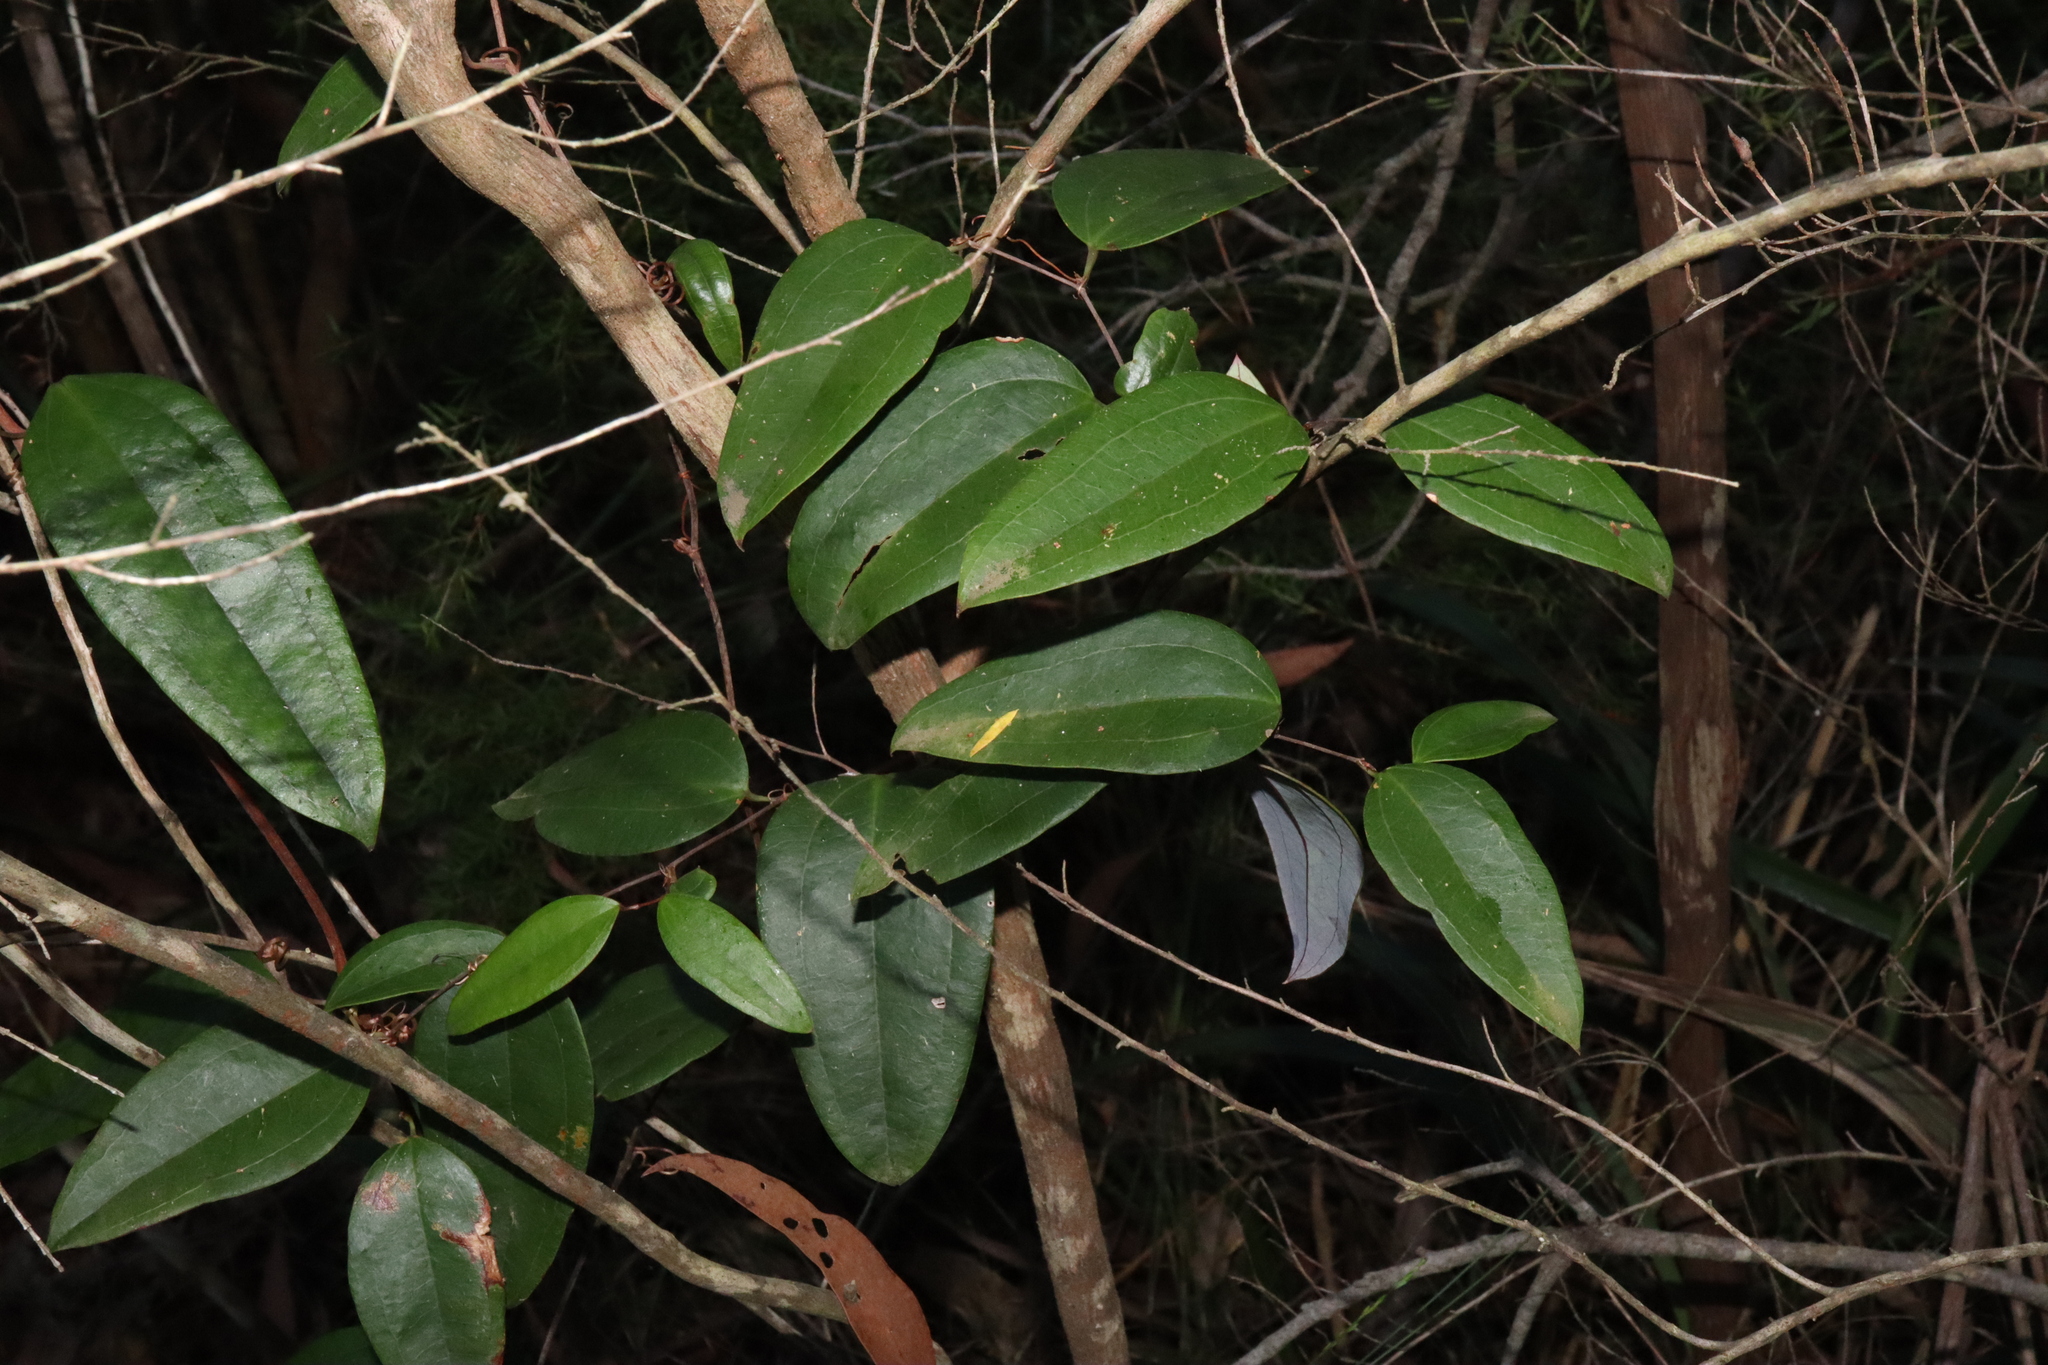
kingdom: Plantae
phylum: Tracheophyta
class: Liliopsida
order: Liliales
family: Smilacaceae
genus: Smilax
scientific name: Smilax glyciphylla
